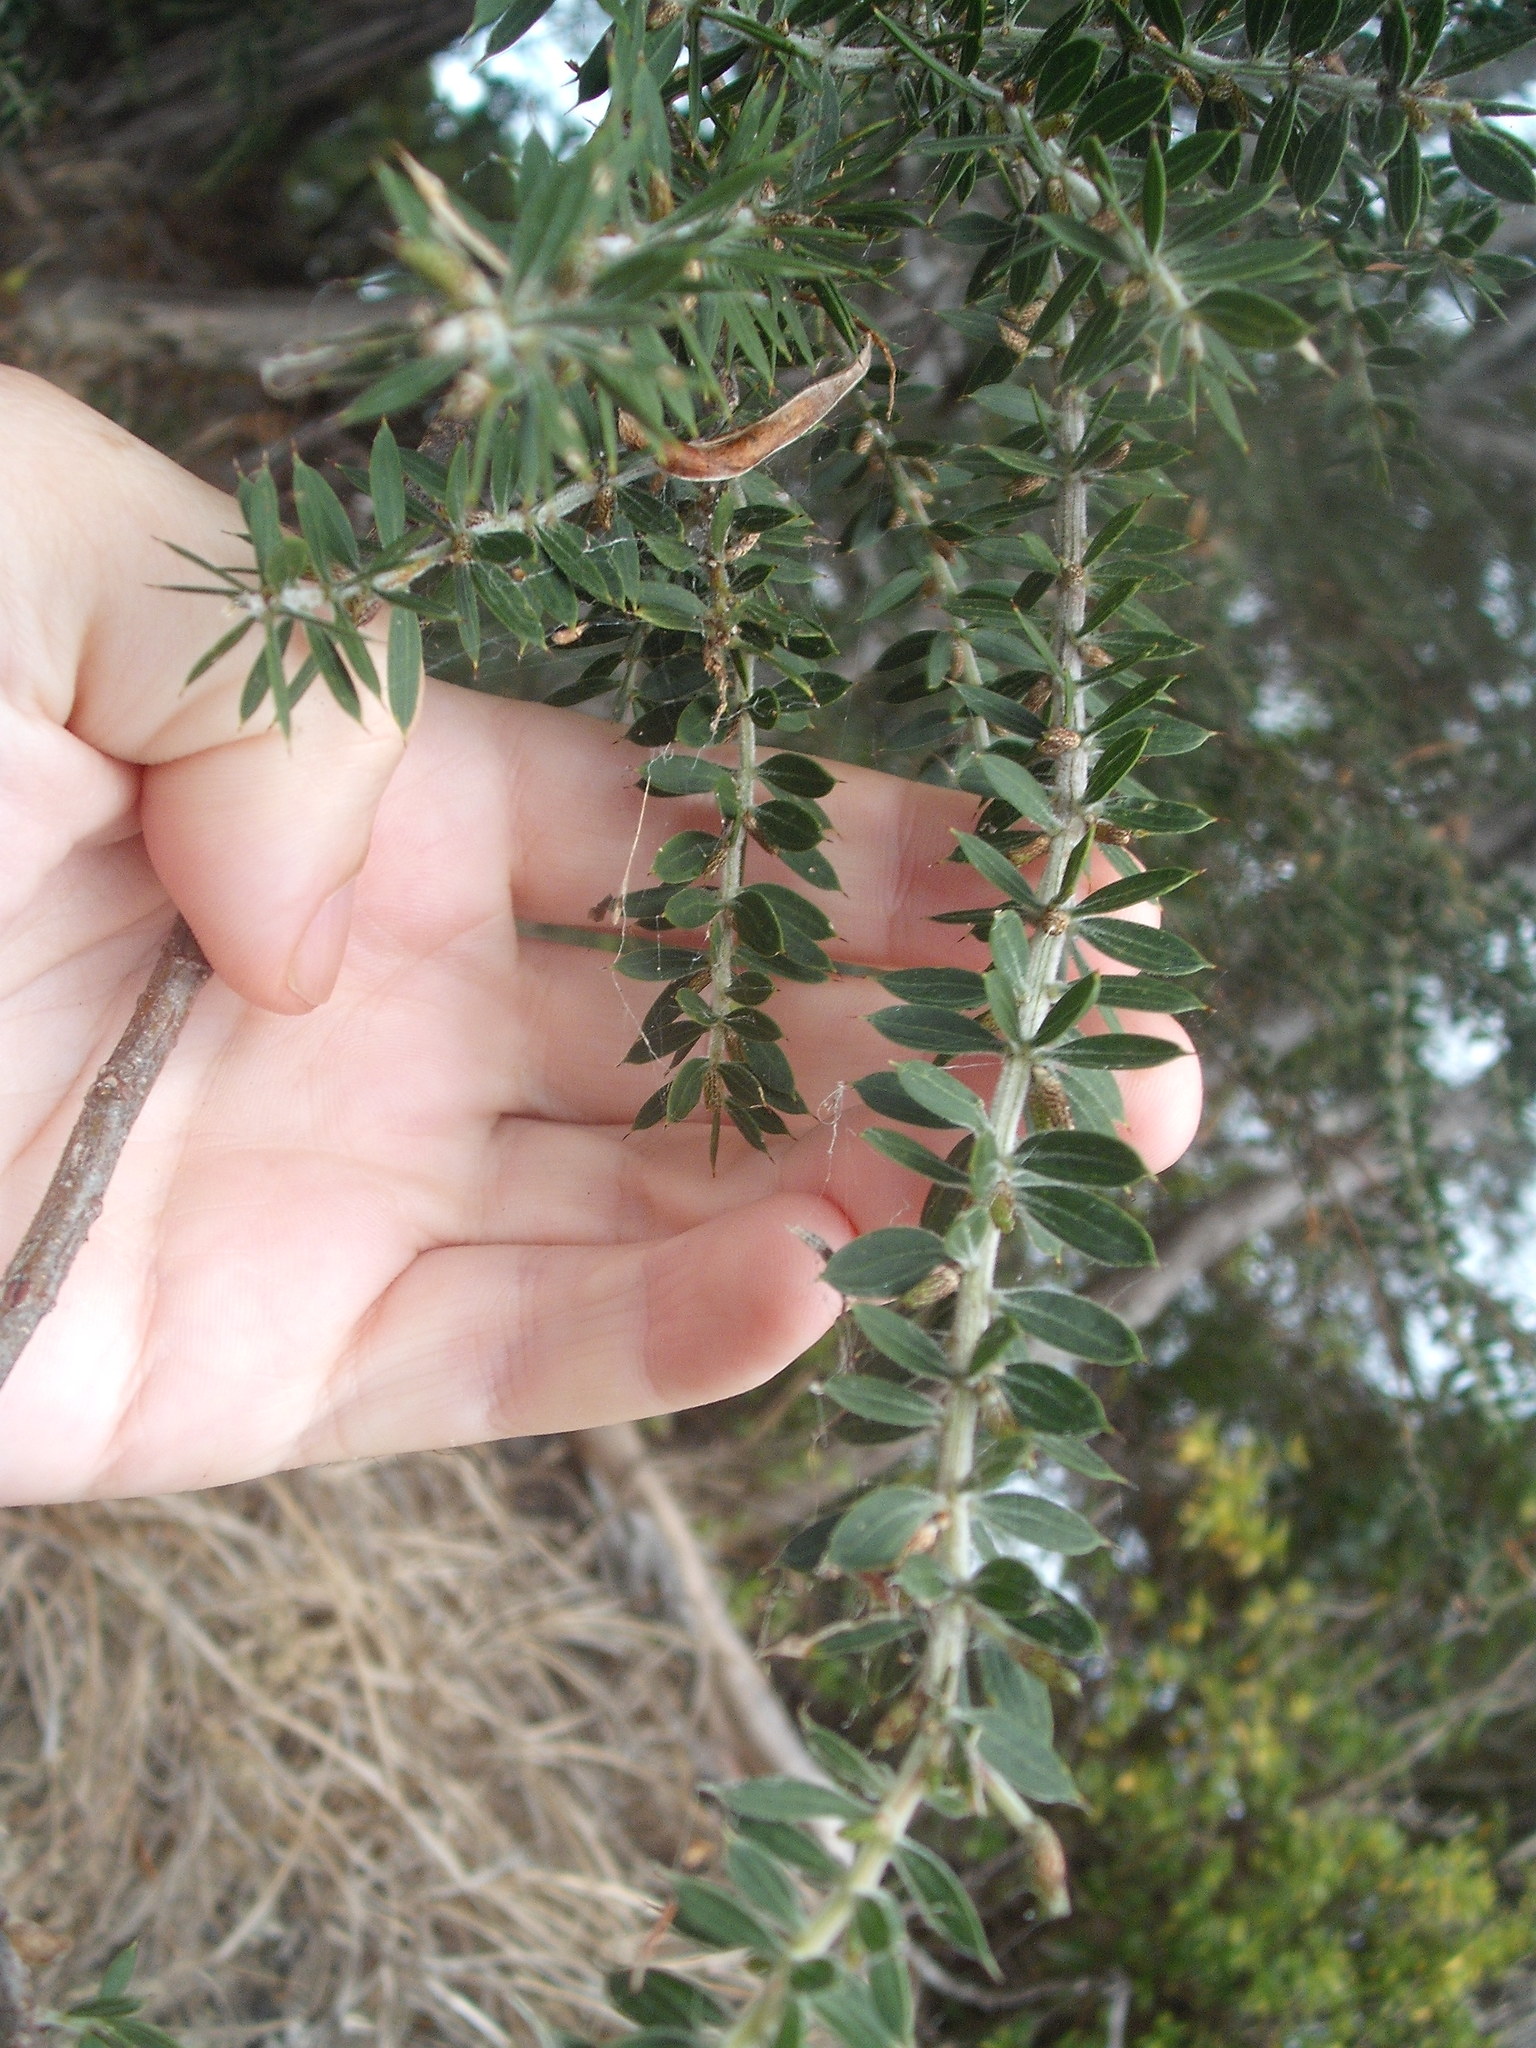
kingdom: Plantae
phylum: Tracheophyta
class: Magnoliopsida
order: Fabales
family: Fabaceae
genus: Acacia
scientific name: Acacia verticillata
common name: Prickly moses
